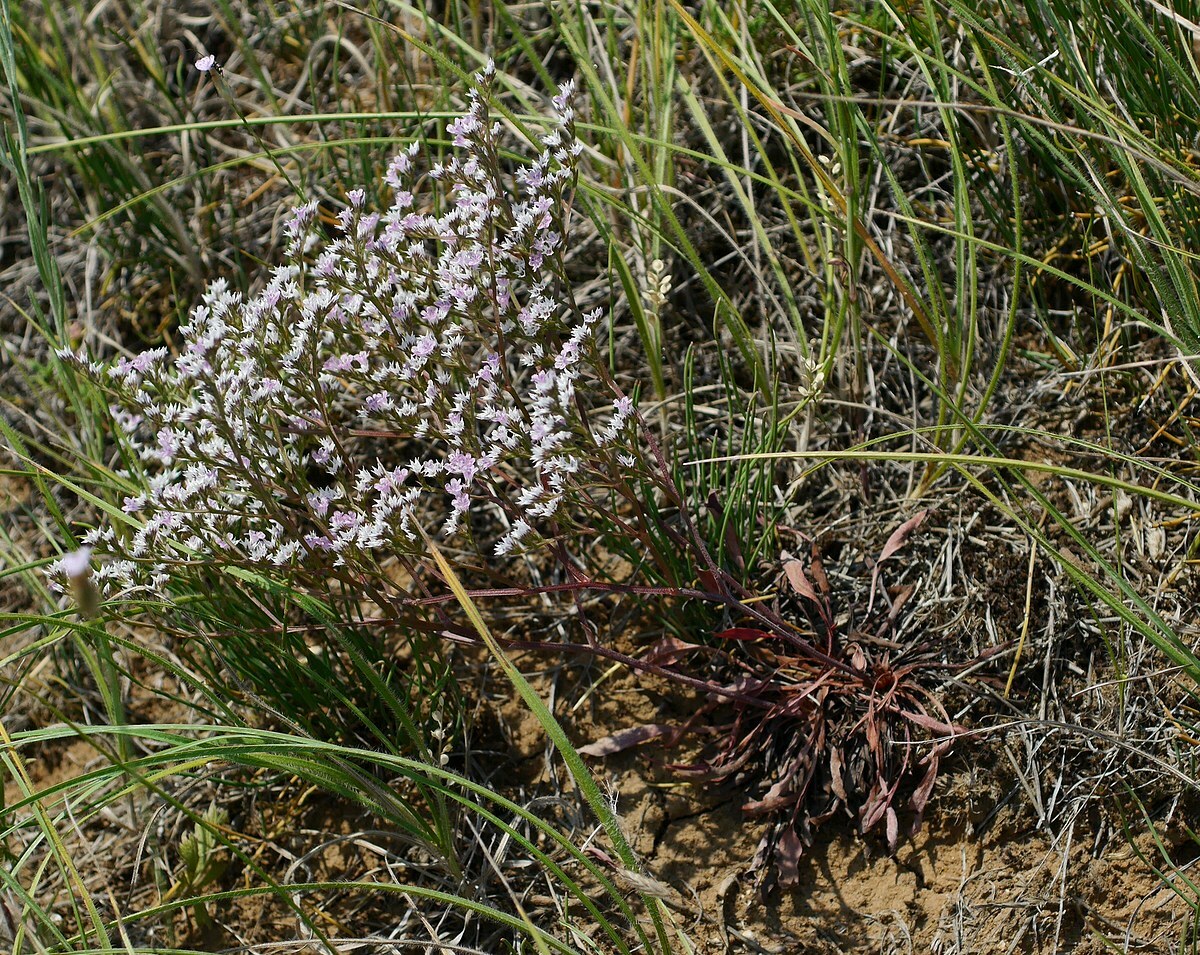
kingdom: Plantae
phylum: Tracheophyta
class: Magnoliopsida
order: Caryophyllales
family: Plumbaginaceae
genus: Goniolimon
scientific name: Goniolimon tataricum
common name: Statice
